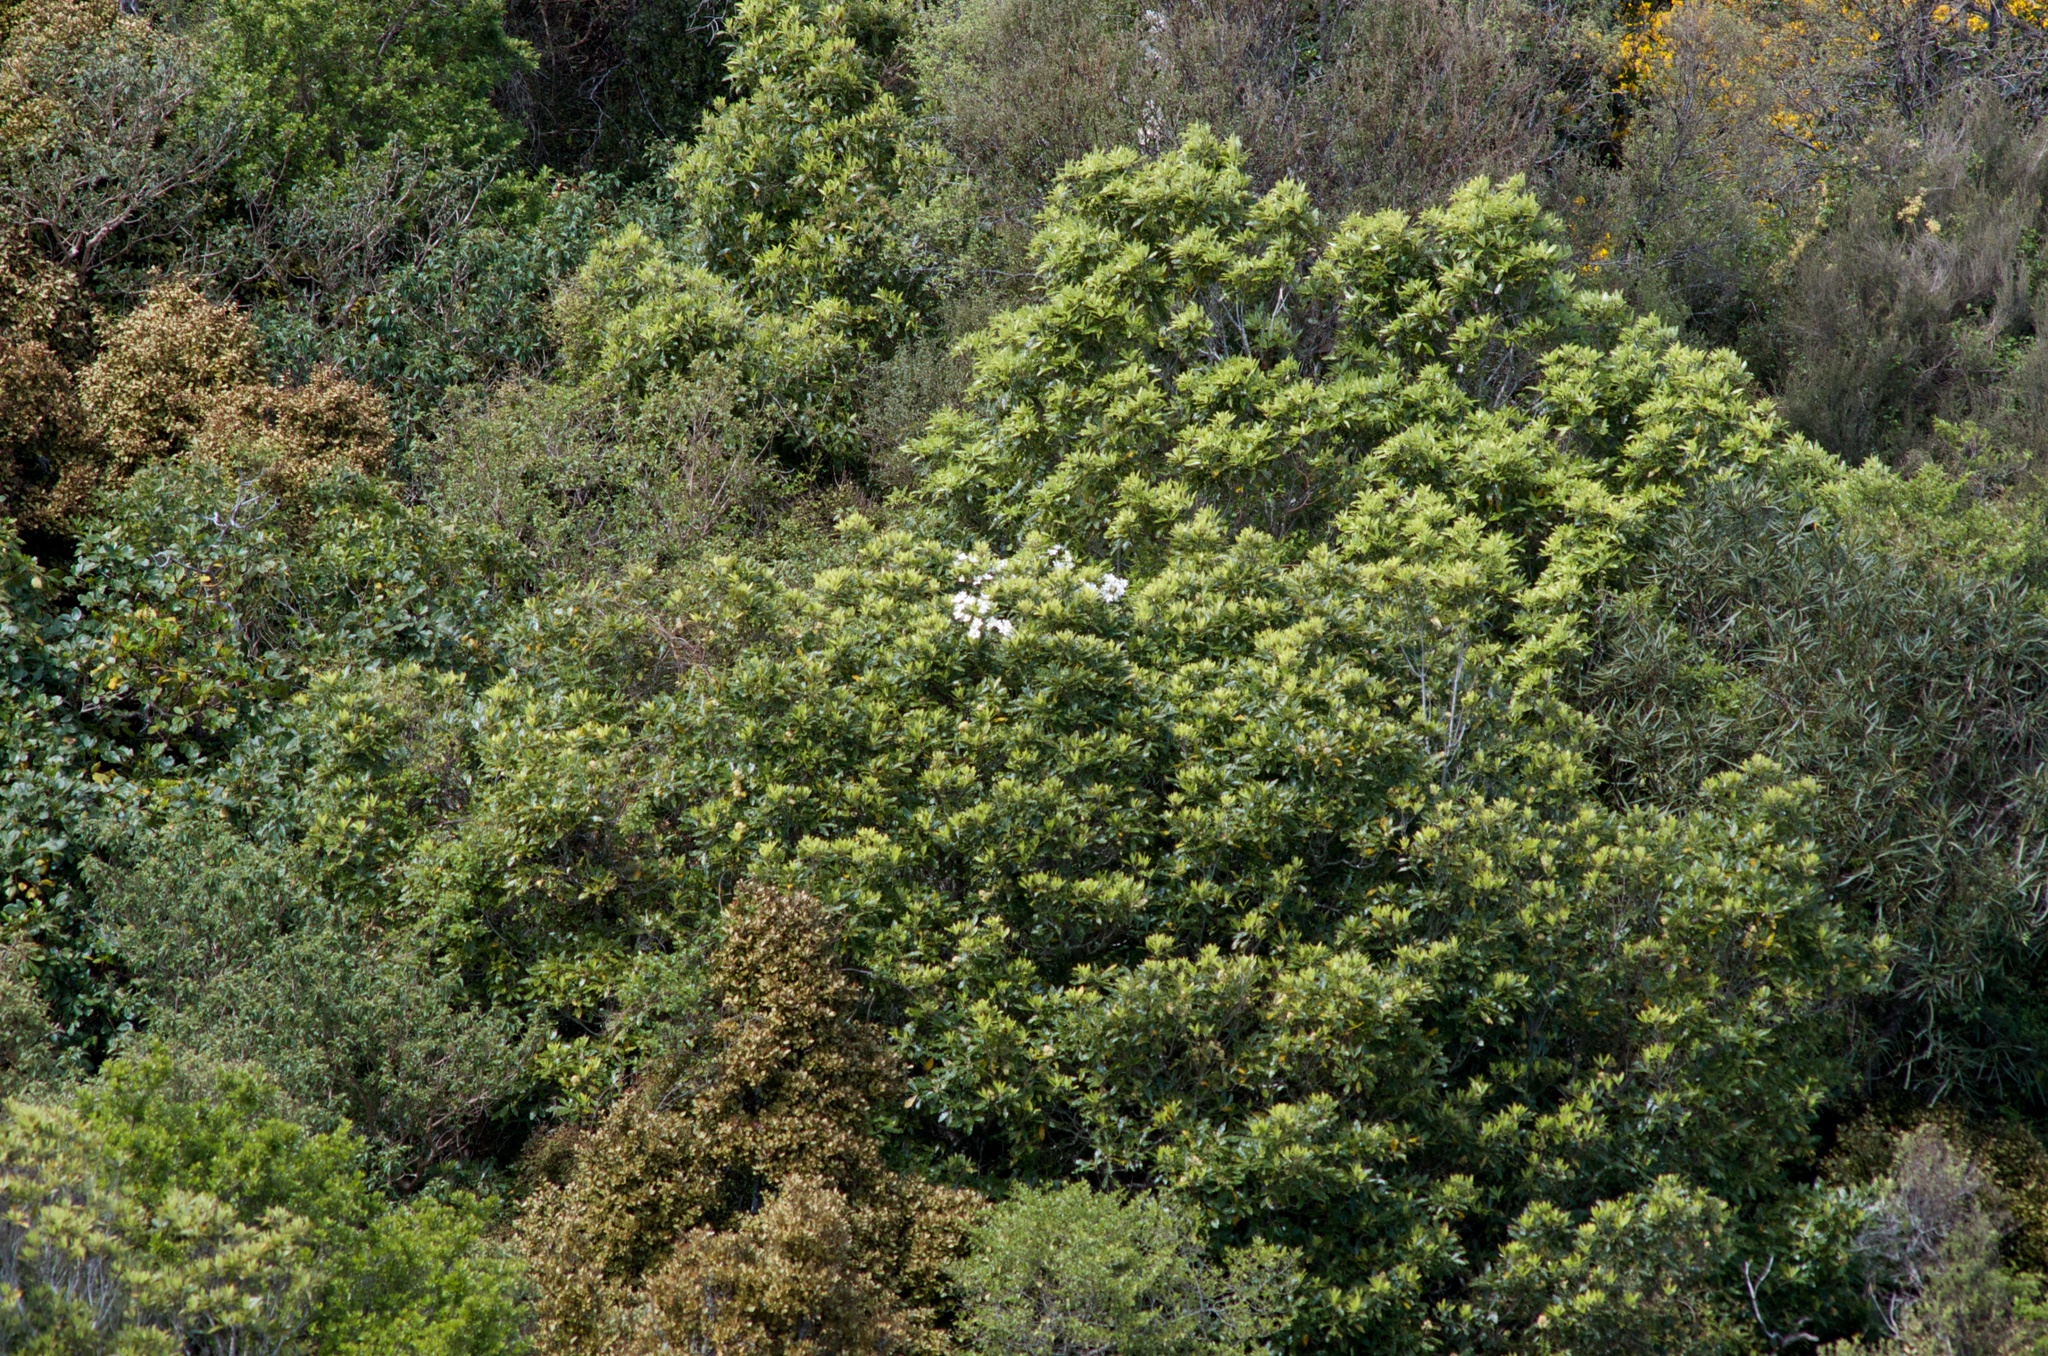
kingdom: Plantae
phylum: Tracheophyta
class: Magnoliopsida
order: Ranunculales
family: Ranunculaceae
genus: Clematis
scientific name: Clematis paniculata
